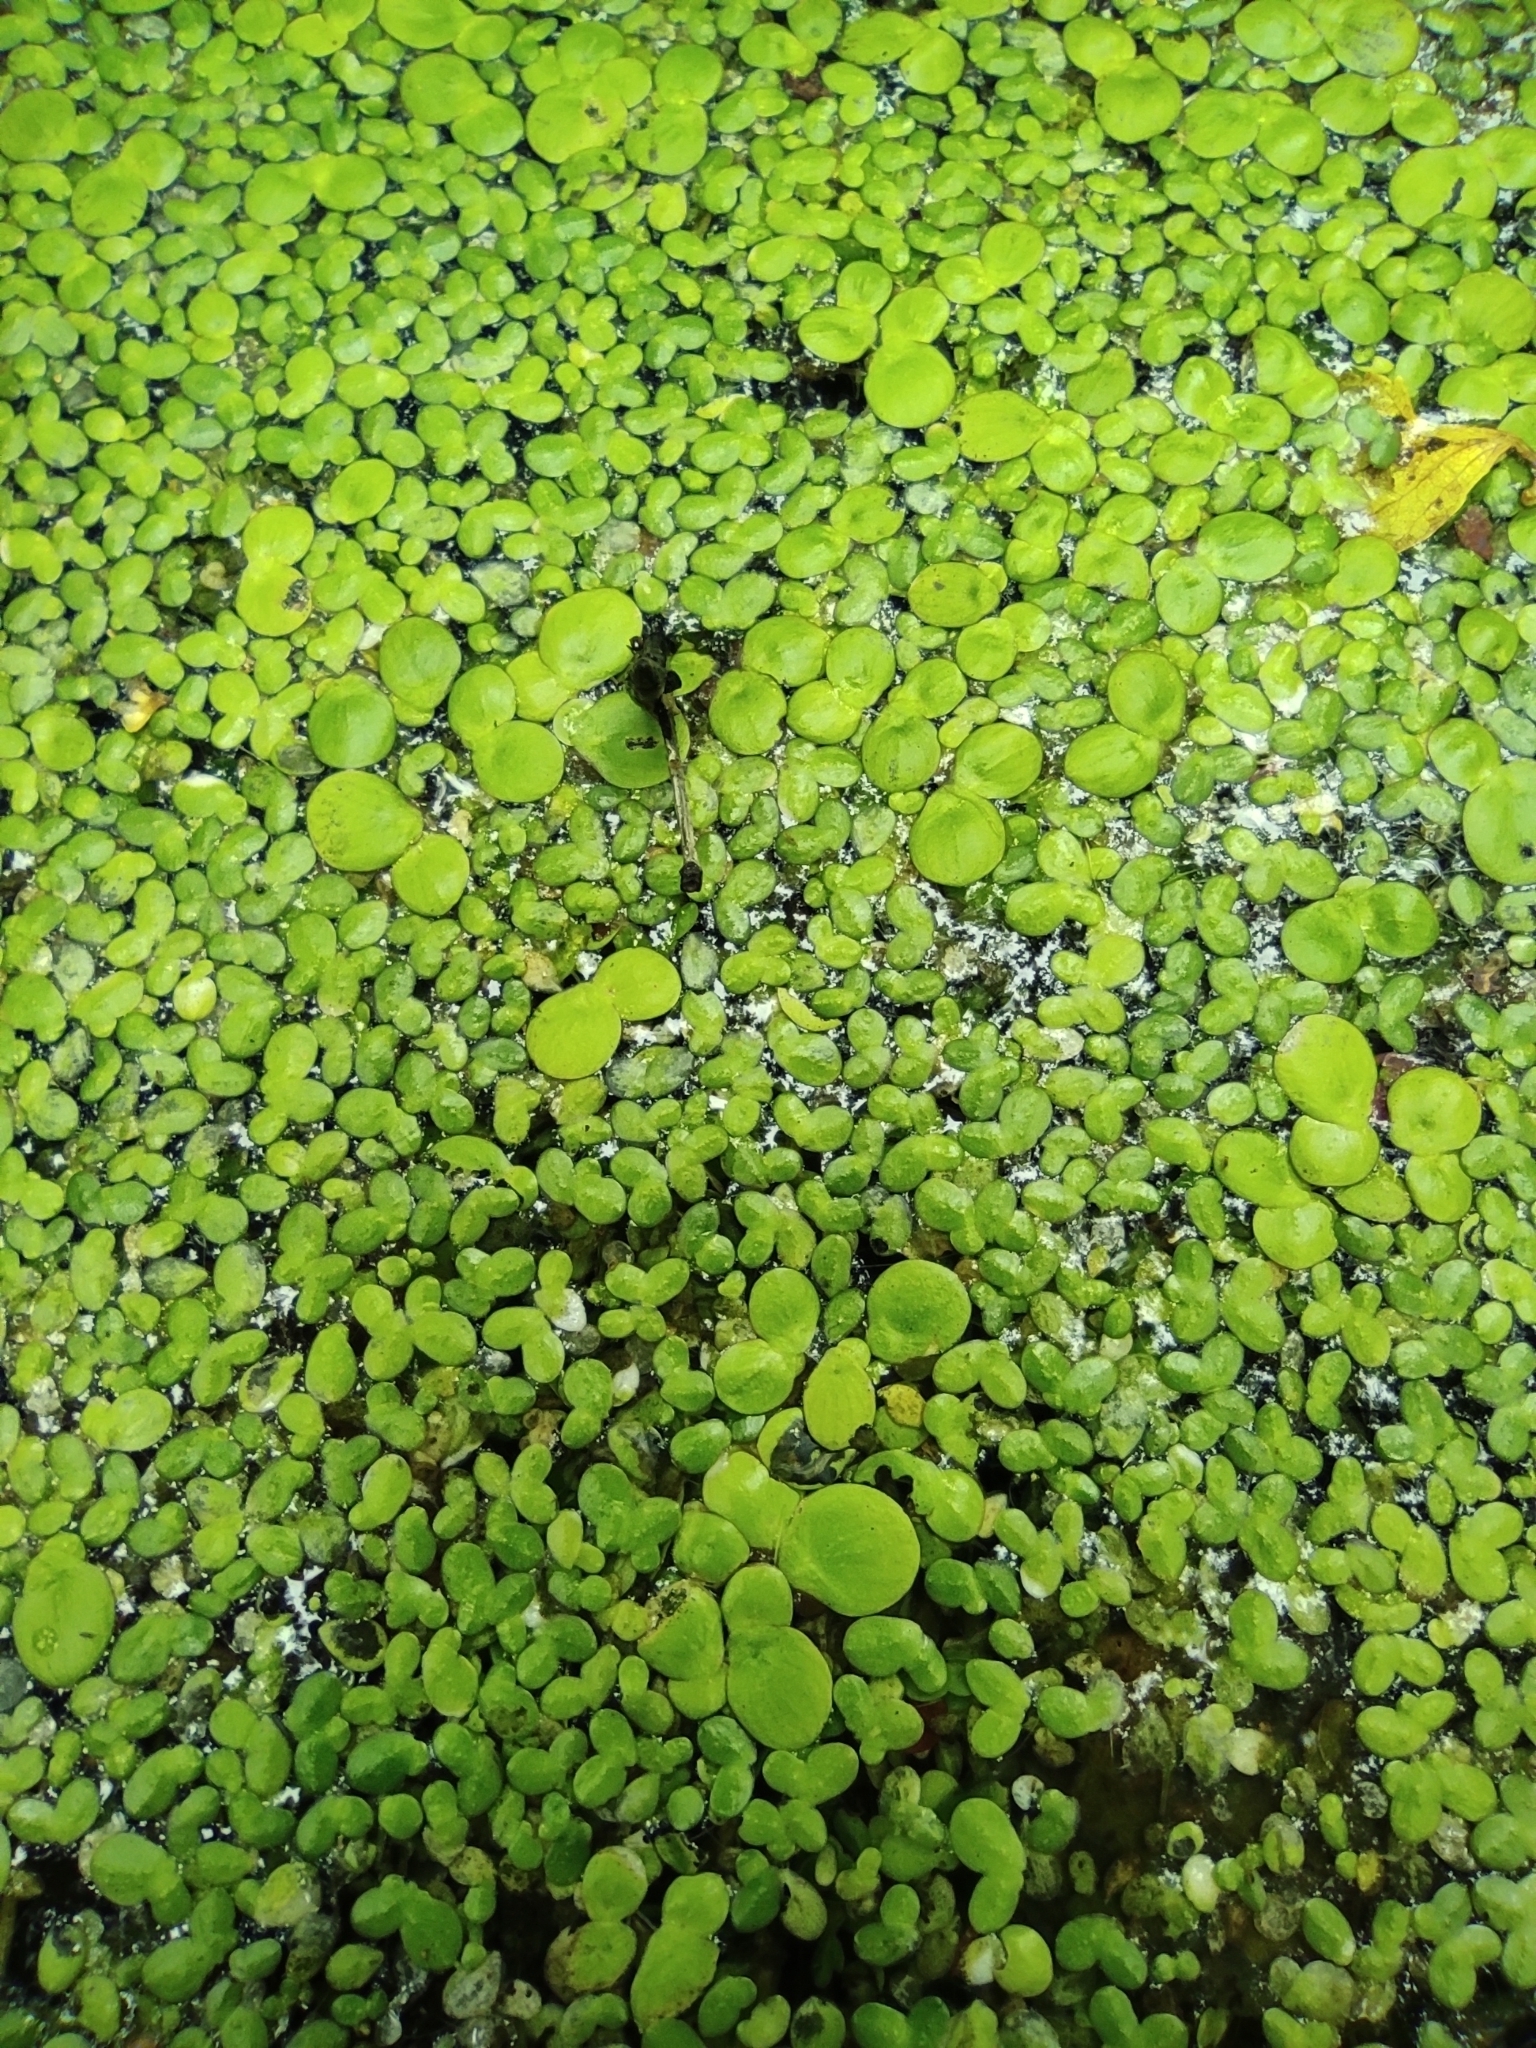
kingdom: Plantae
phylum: Tracheophyta
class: Liliopsida
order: Alismatales
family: Araceae
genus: Spirodela
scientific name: Spirodela polyrhiza
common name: Great duckweed
